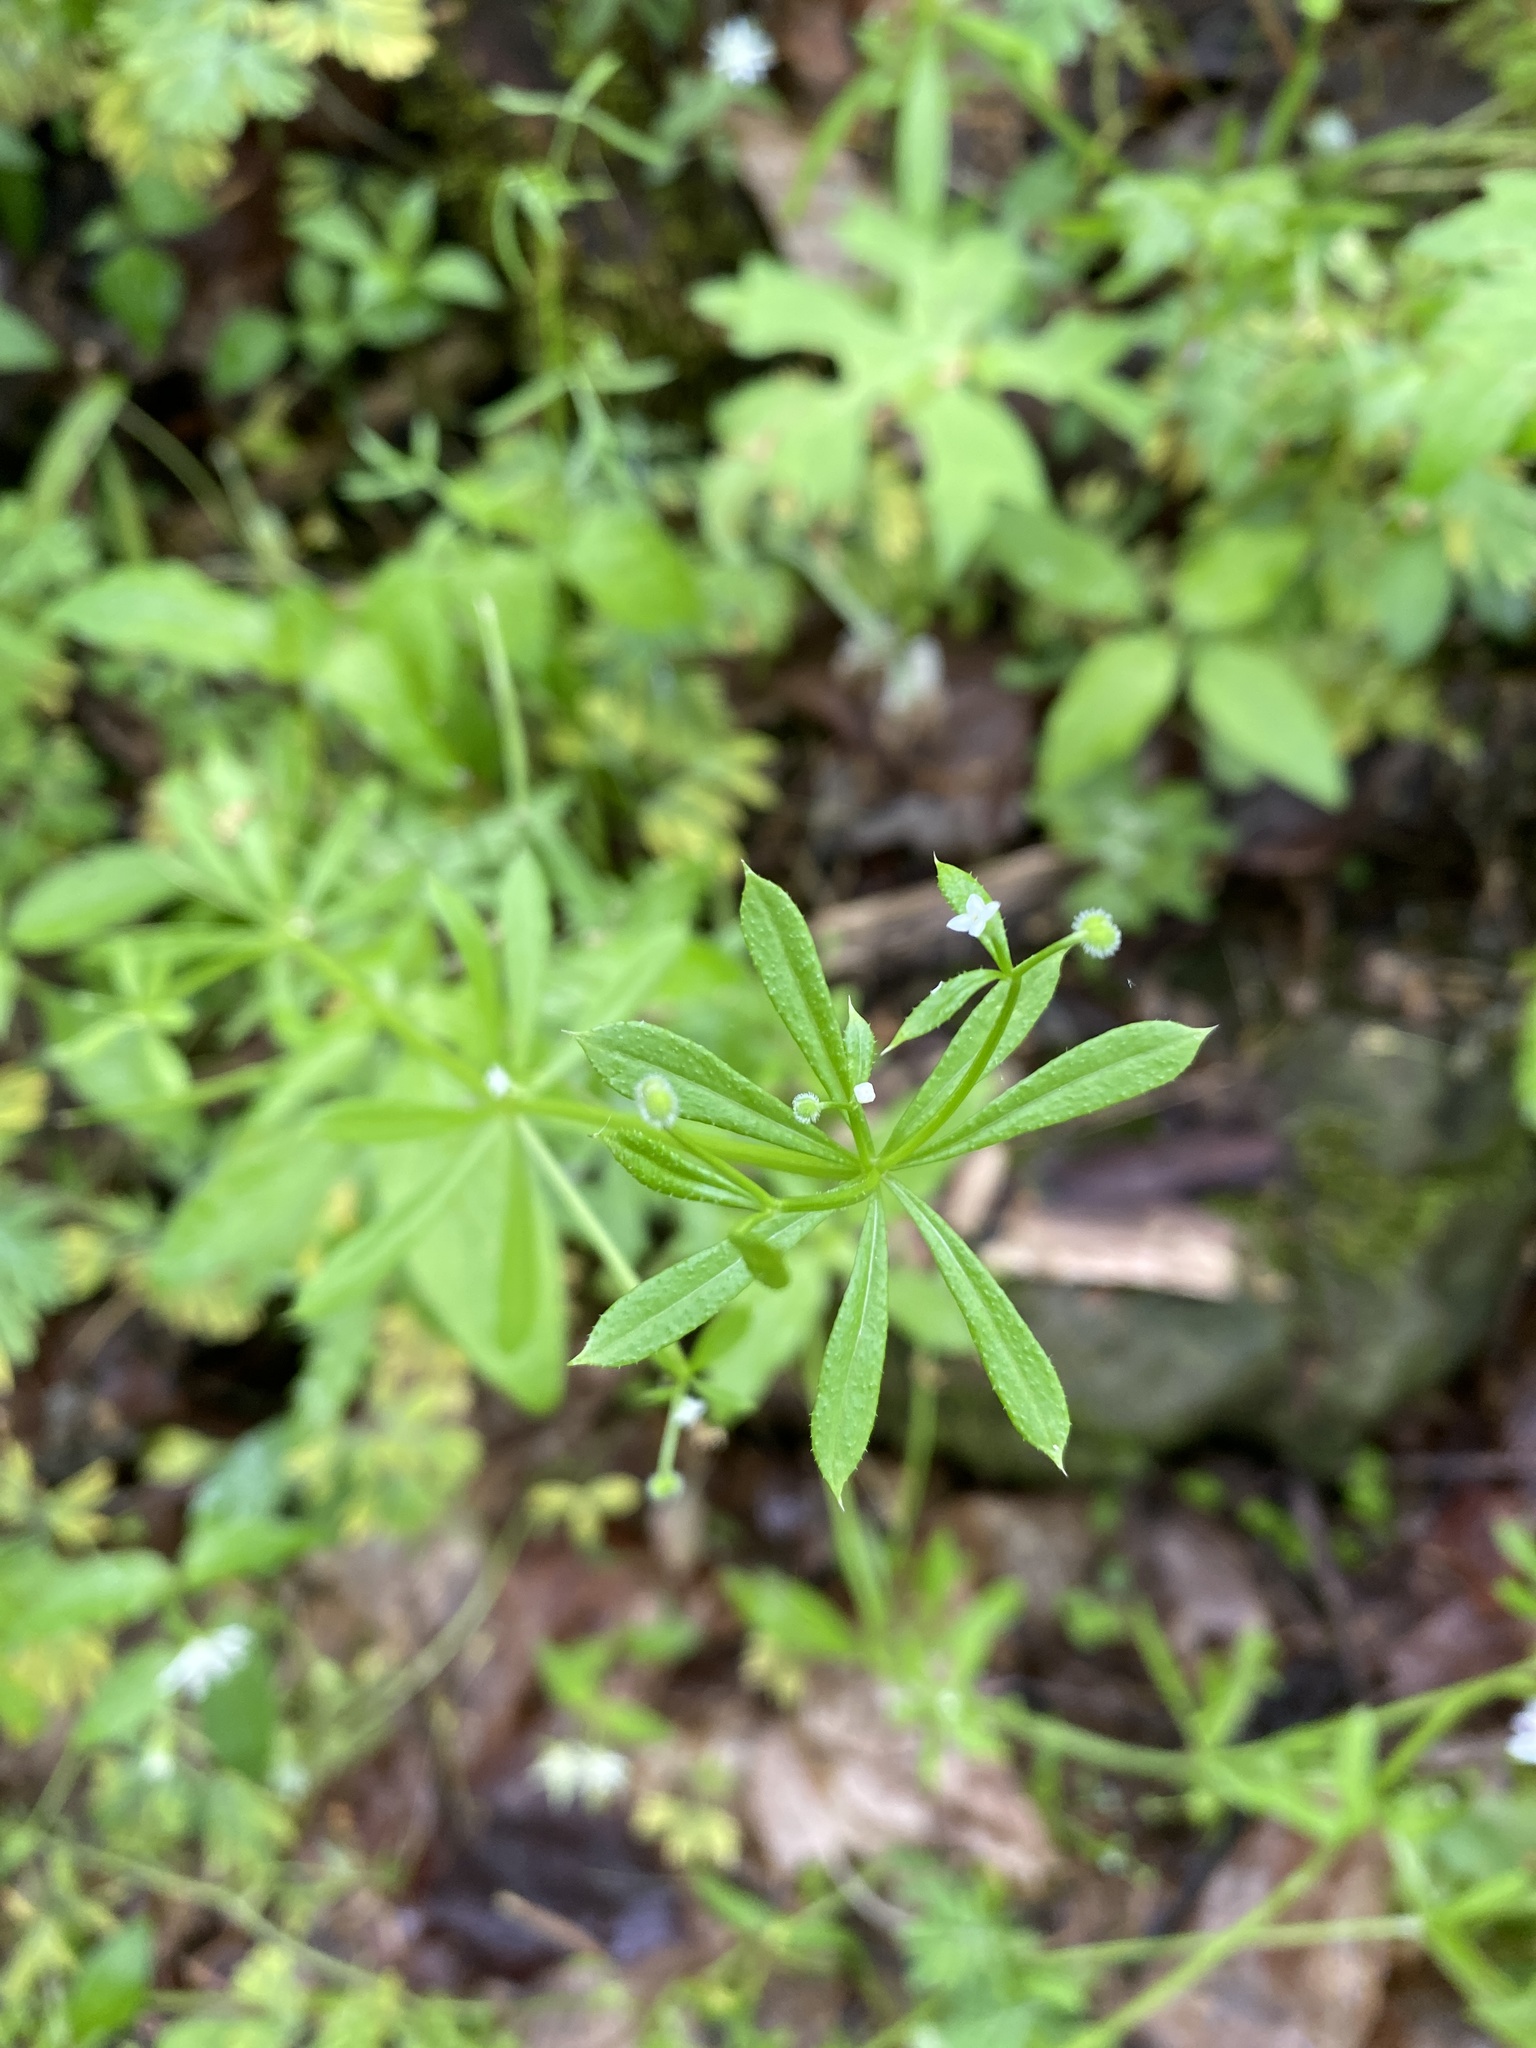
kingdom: Plantae
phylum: Tracheophyta
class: Magnoliopsida
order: Gentianales
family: Rubiaceae
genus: Galium
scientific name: Galium aparine
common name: Cleavers
